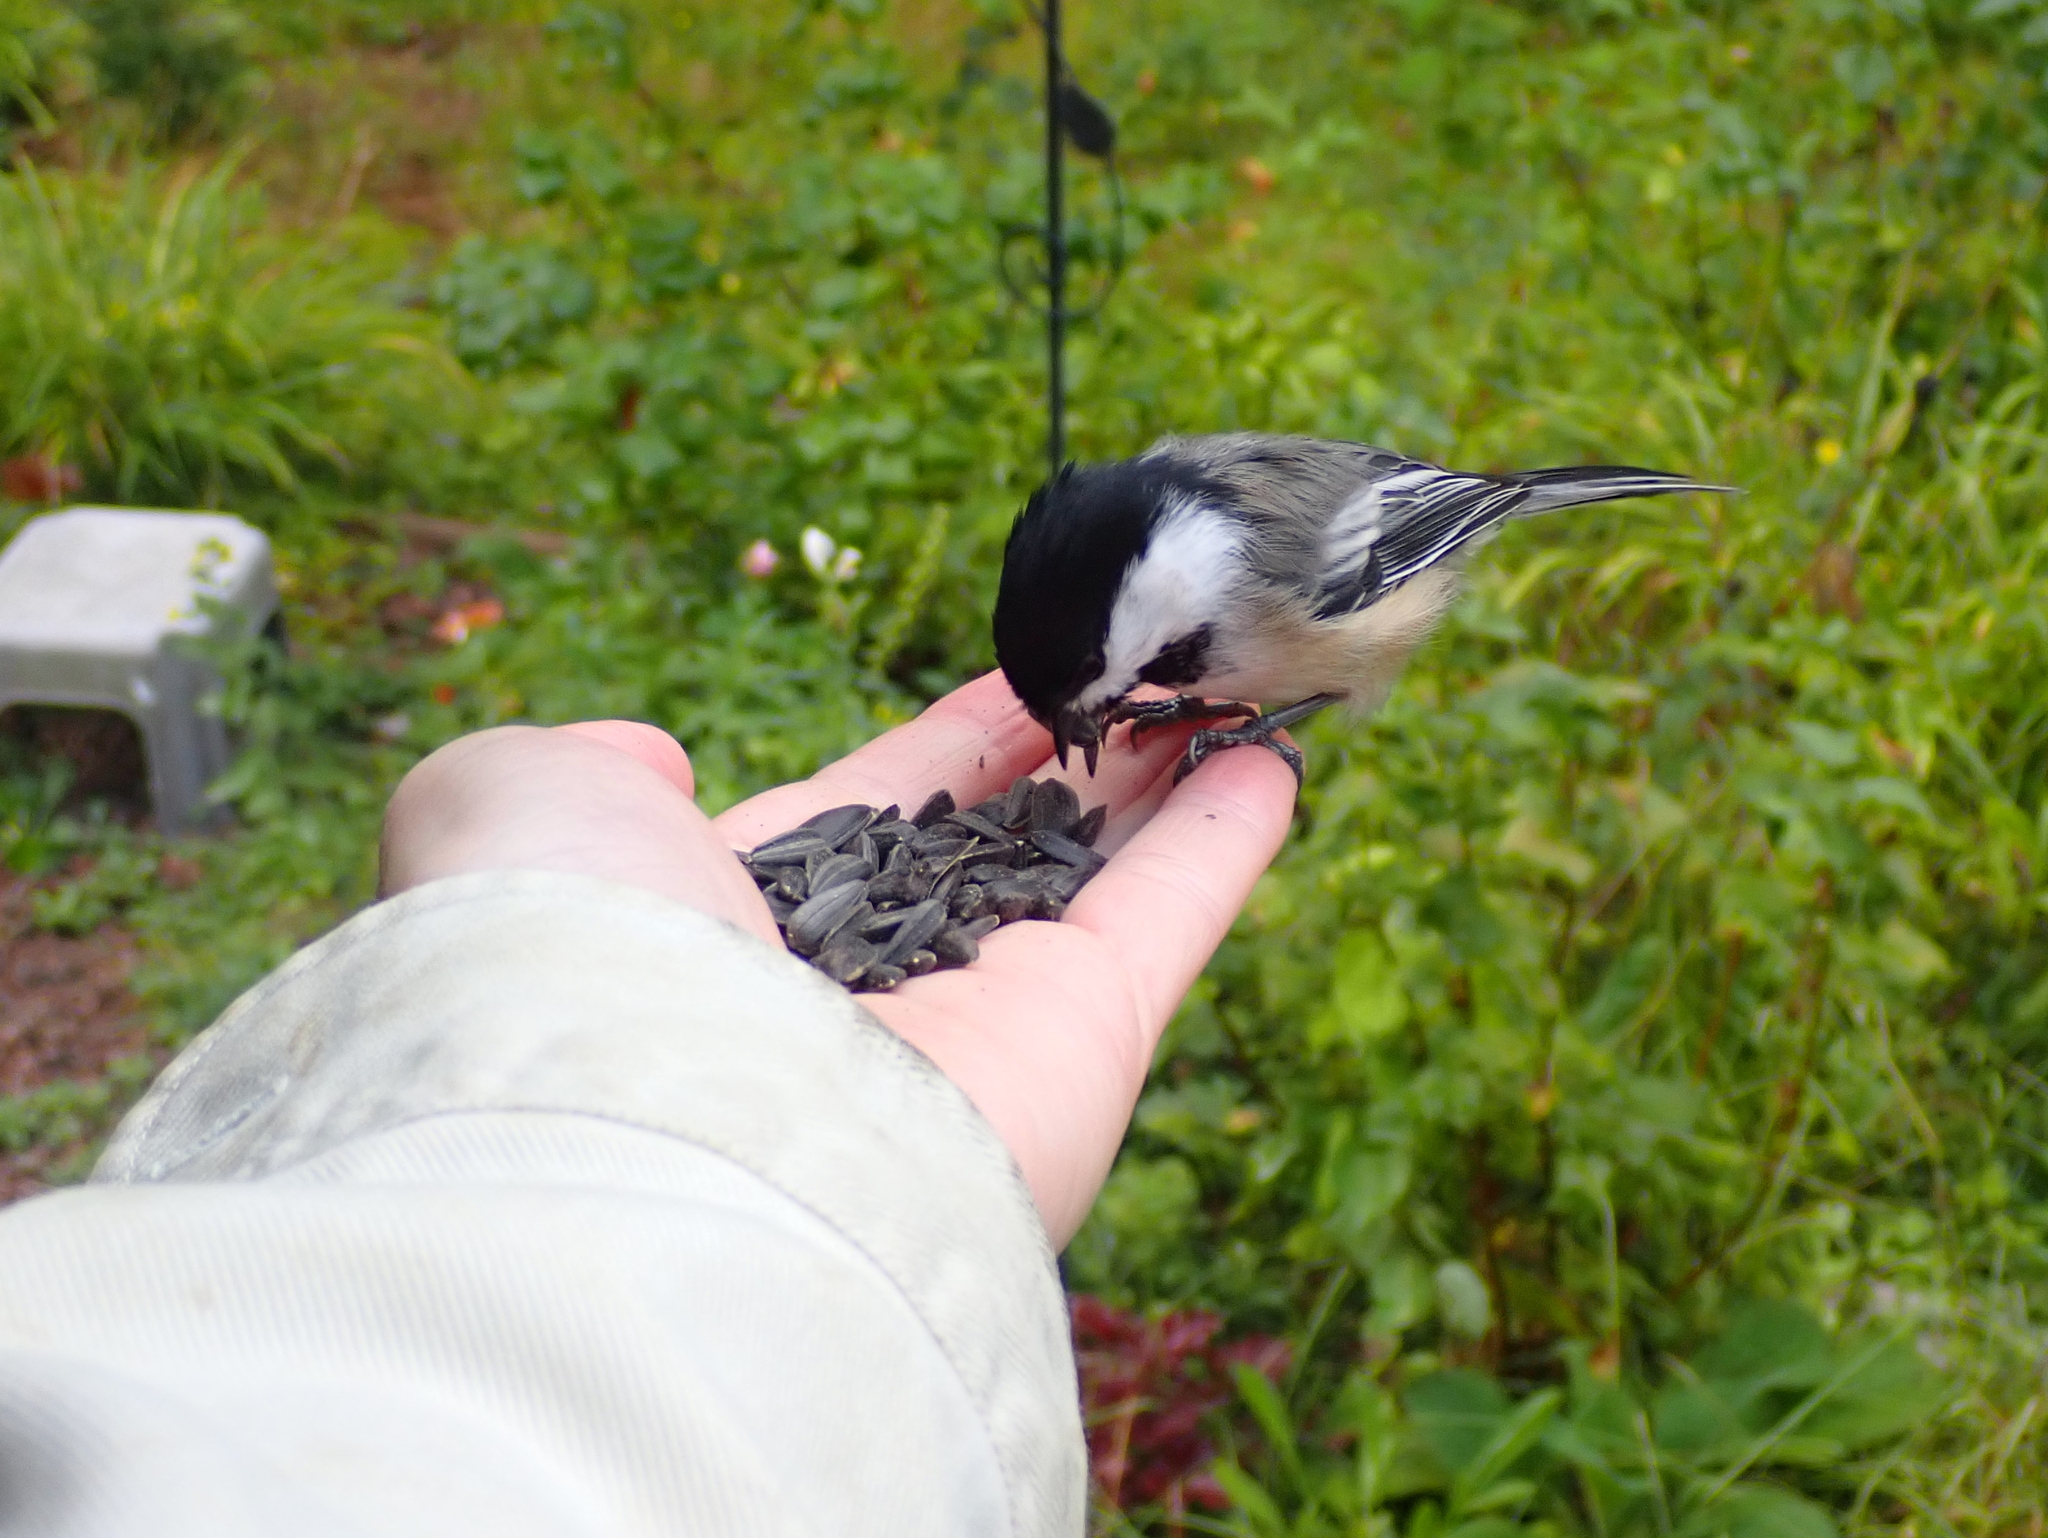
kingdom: Animalia
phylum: Chordata
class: Aves
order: Passeriformes
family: Paridae
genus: Poecile
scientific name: Poecile atricapillus
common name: Black-capped chickadee
